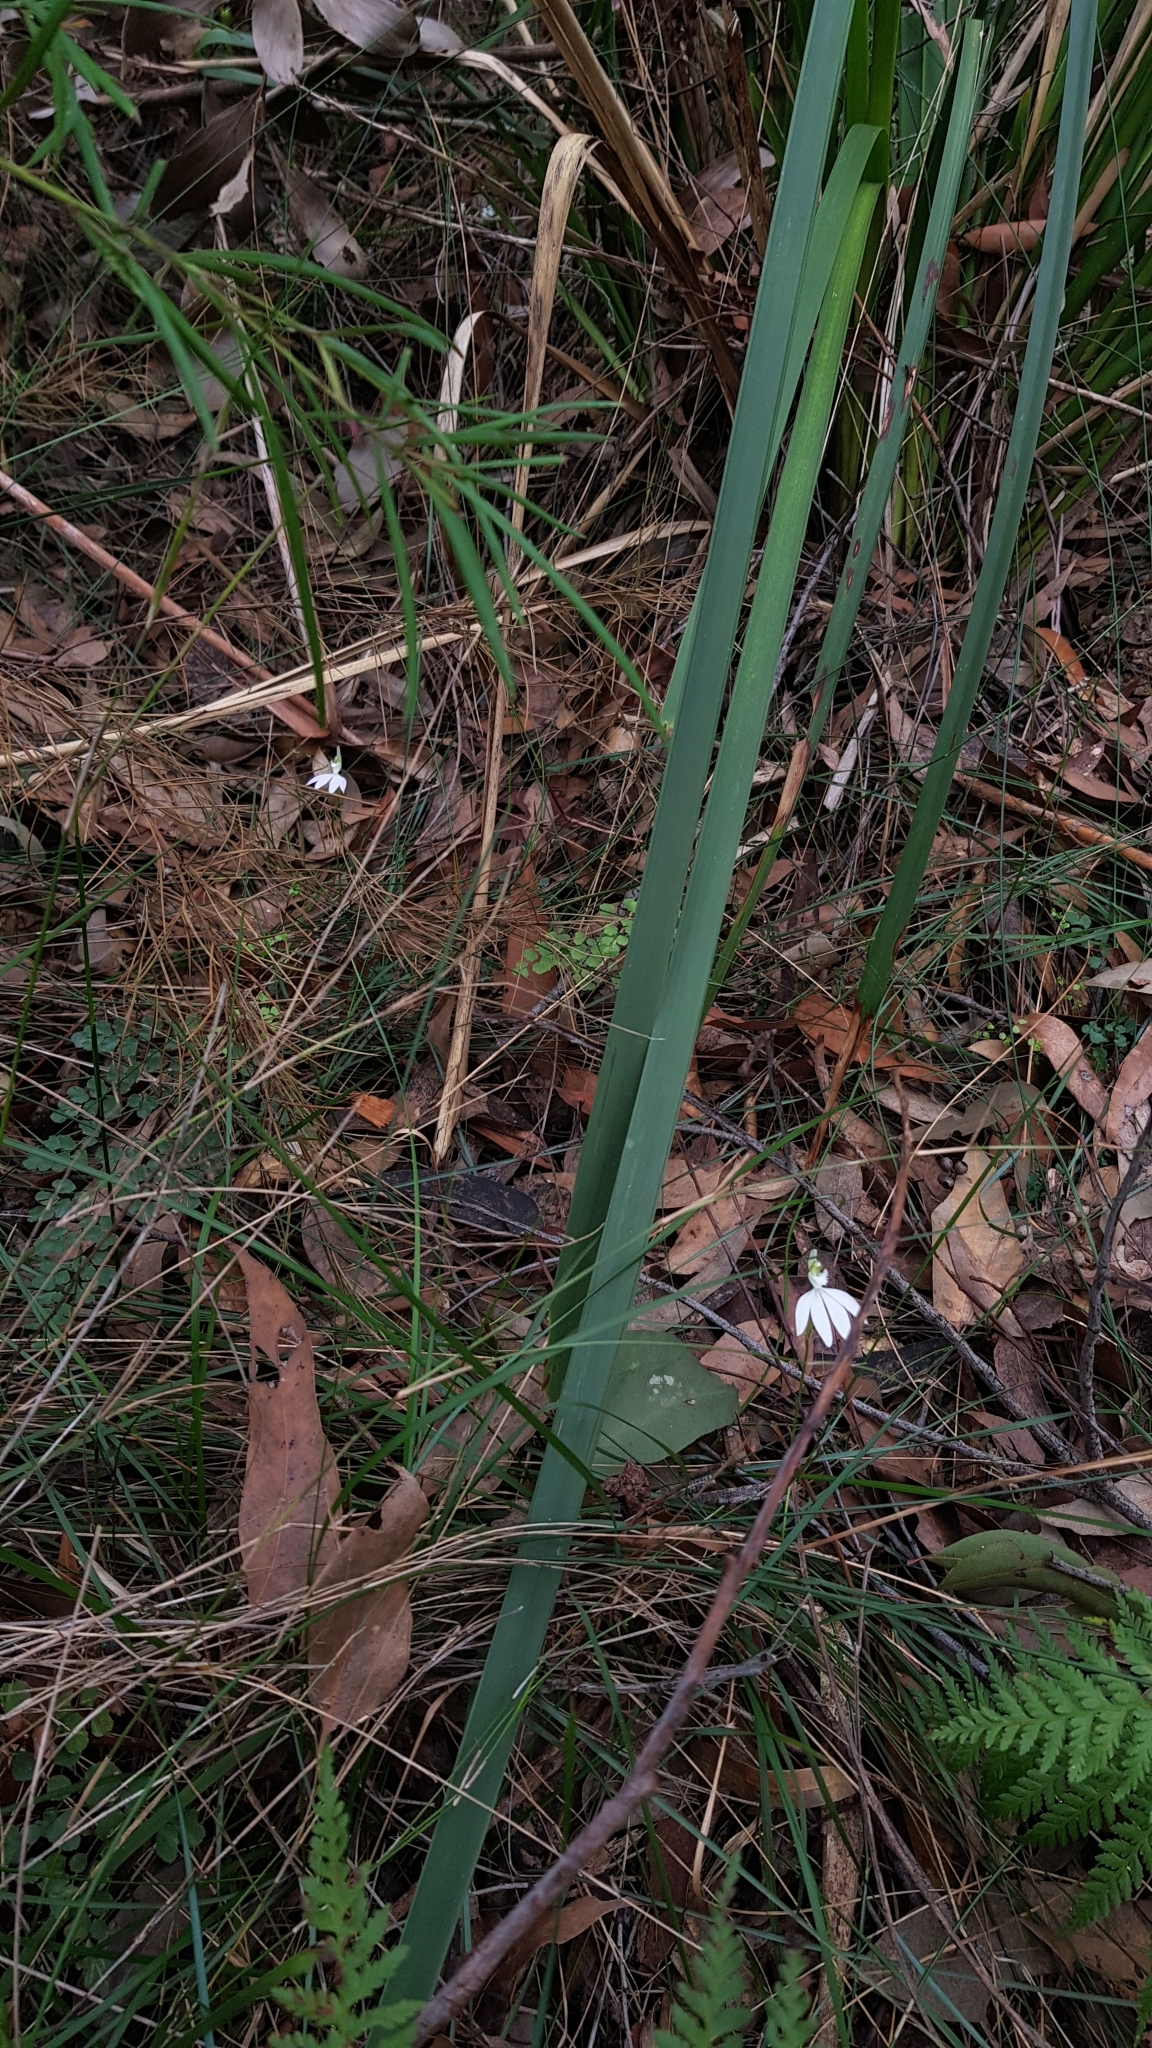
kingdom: Plantae
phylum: Tracheophyta
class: Liliopsida
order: Asparagales
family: Orchidaceae
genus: Caladenia
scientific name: Caladenia catenata
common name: White caladenia
